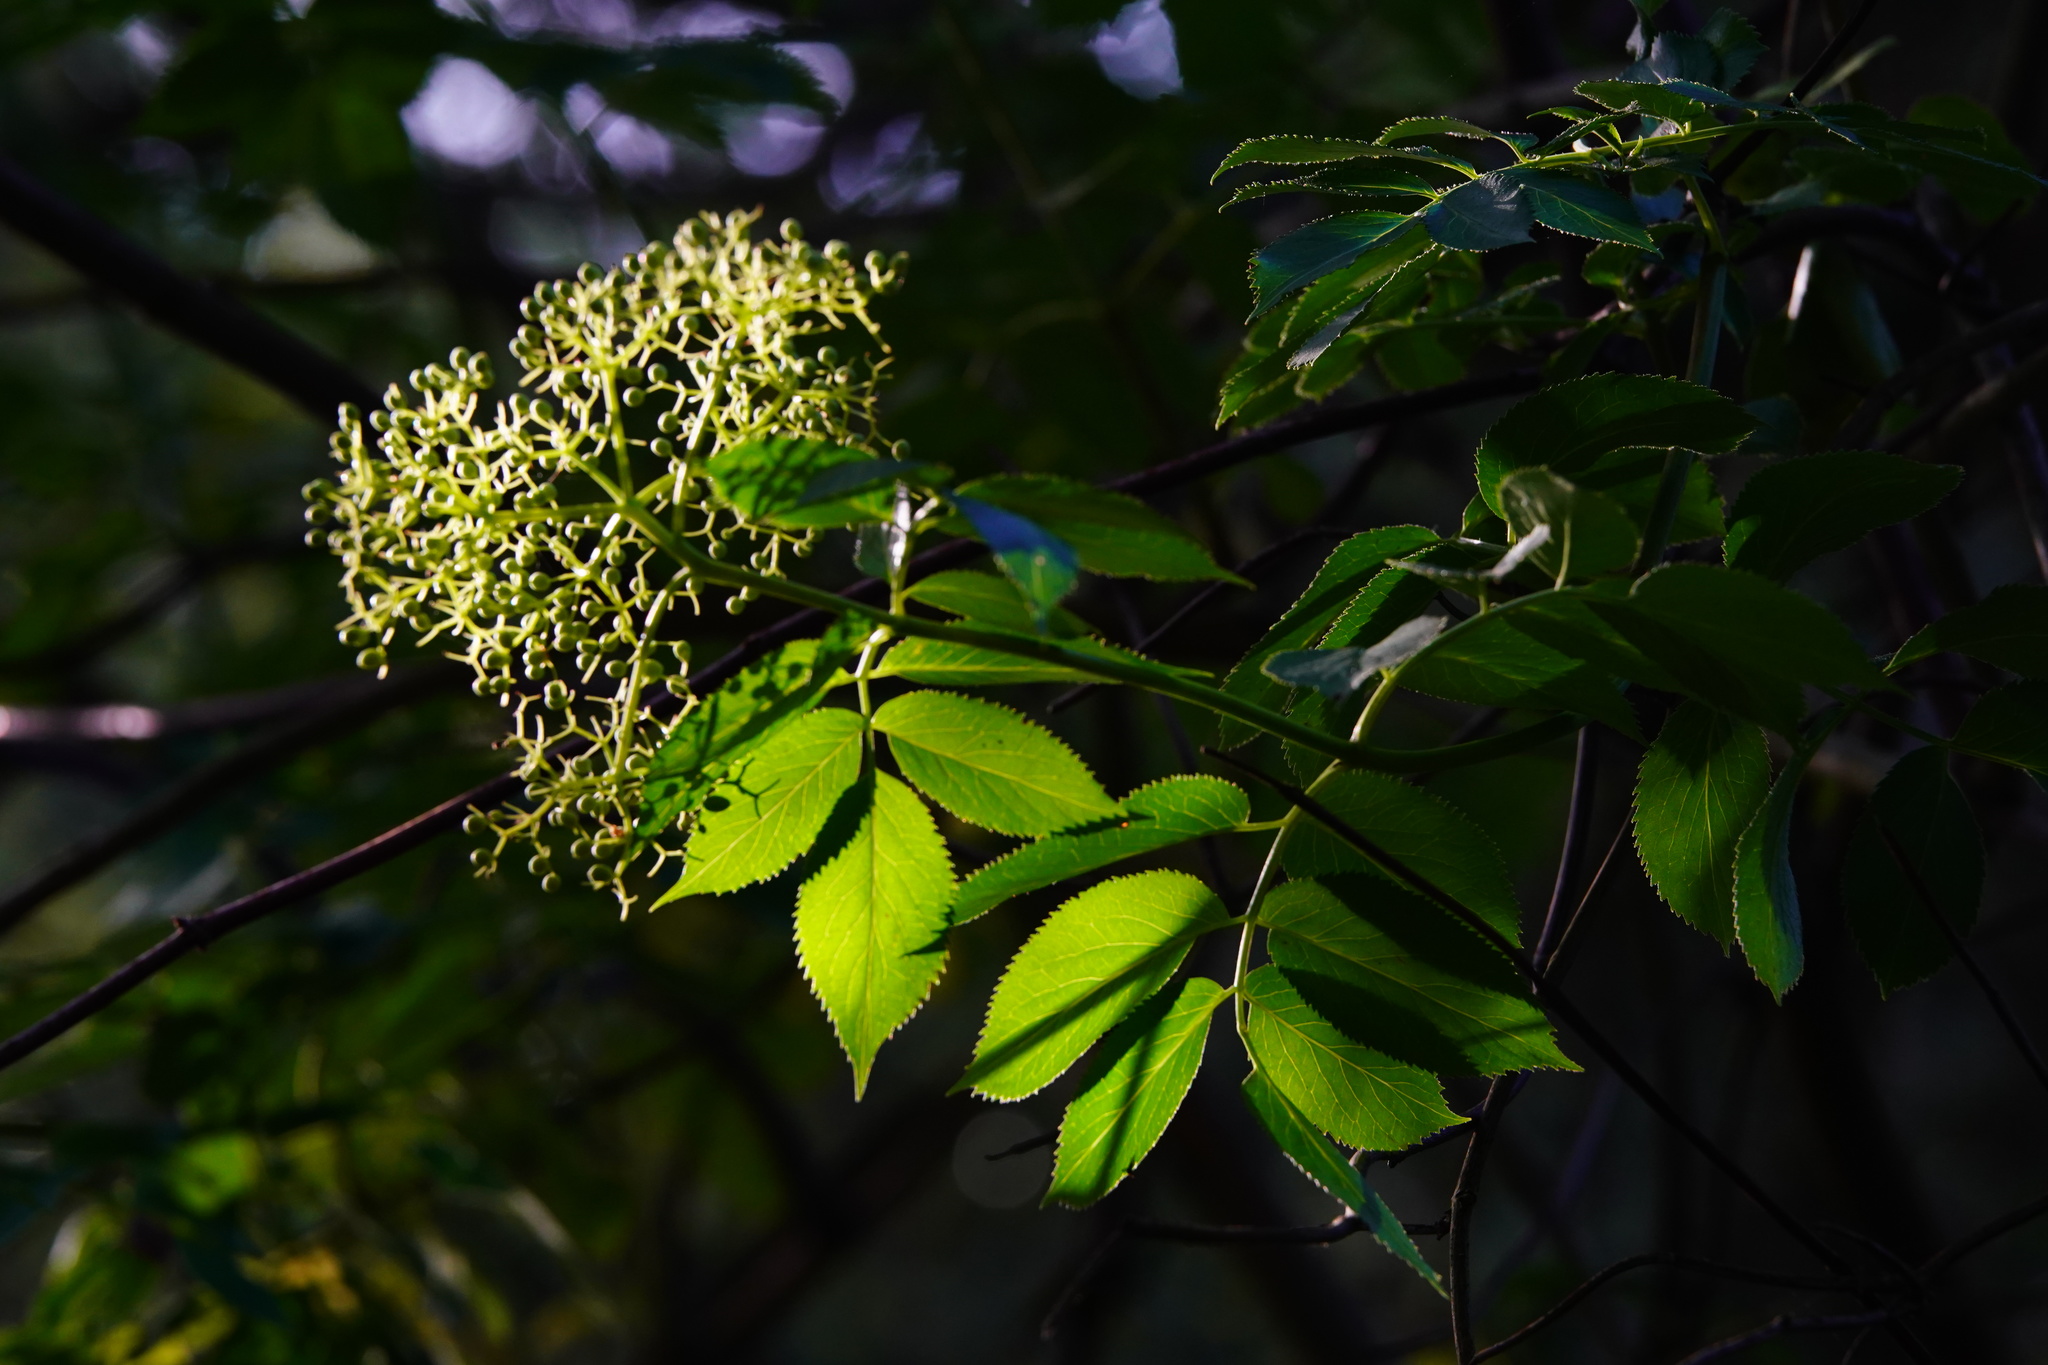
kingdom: Plantae
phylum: Tracheophyta
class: Magnoliopsida
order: Dipsacales
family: Viburnaceae
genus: Sambucus
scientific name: Sambucus cerulea
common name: Blue elder
